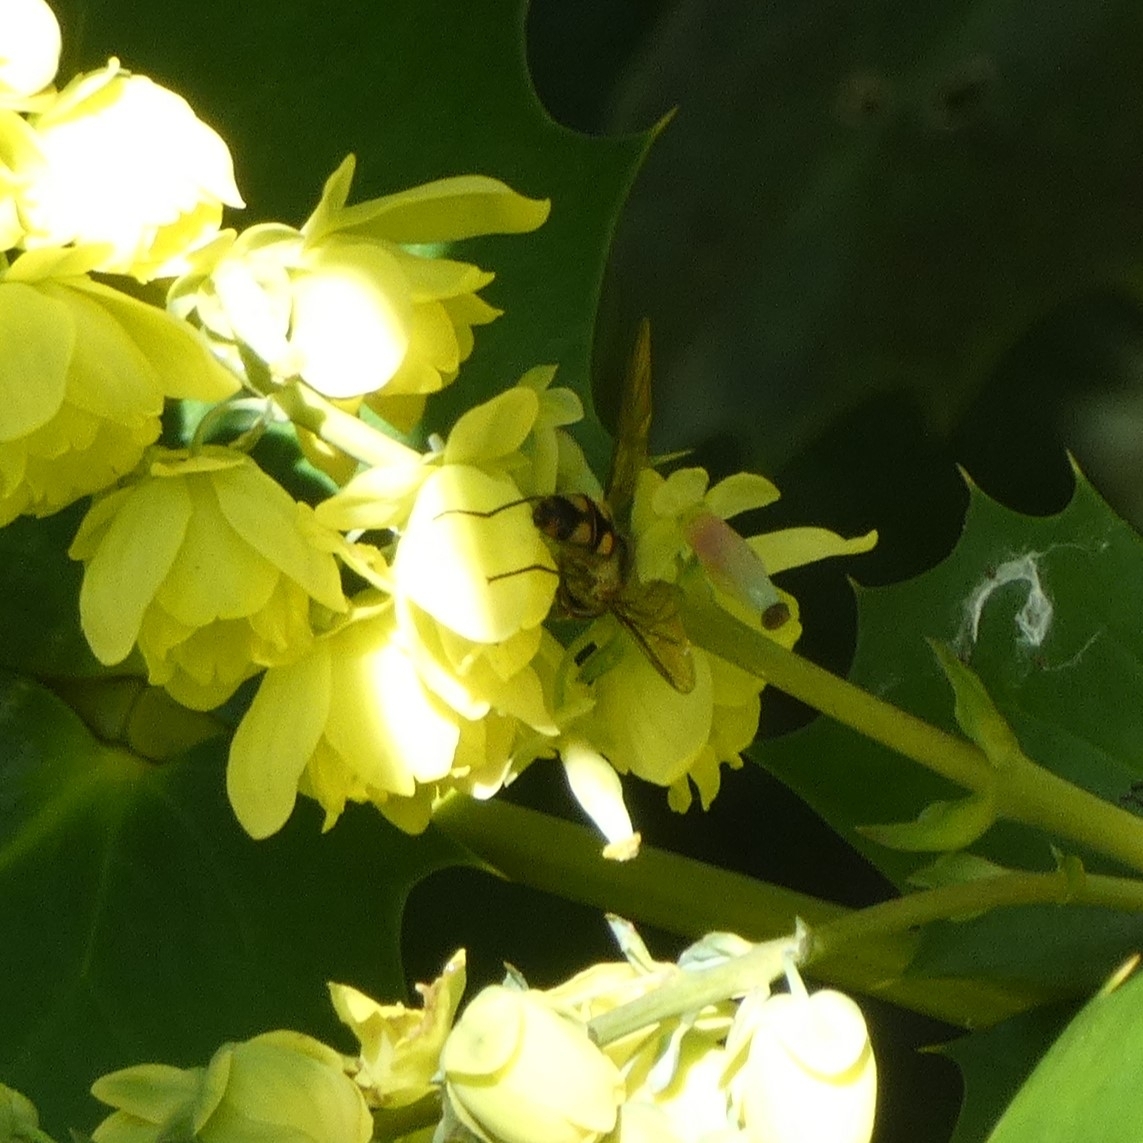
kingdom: Animalia
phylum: Arthropoda
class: Insecta
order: Diptera
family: Syrphidae
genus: Meliscaeva
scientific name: Meliscaeva auricollis
